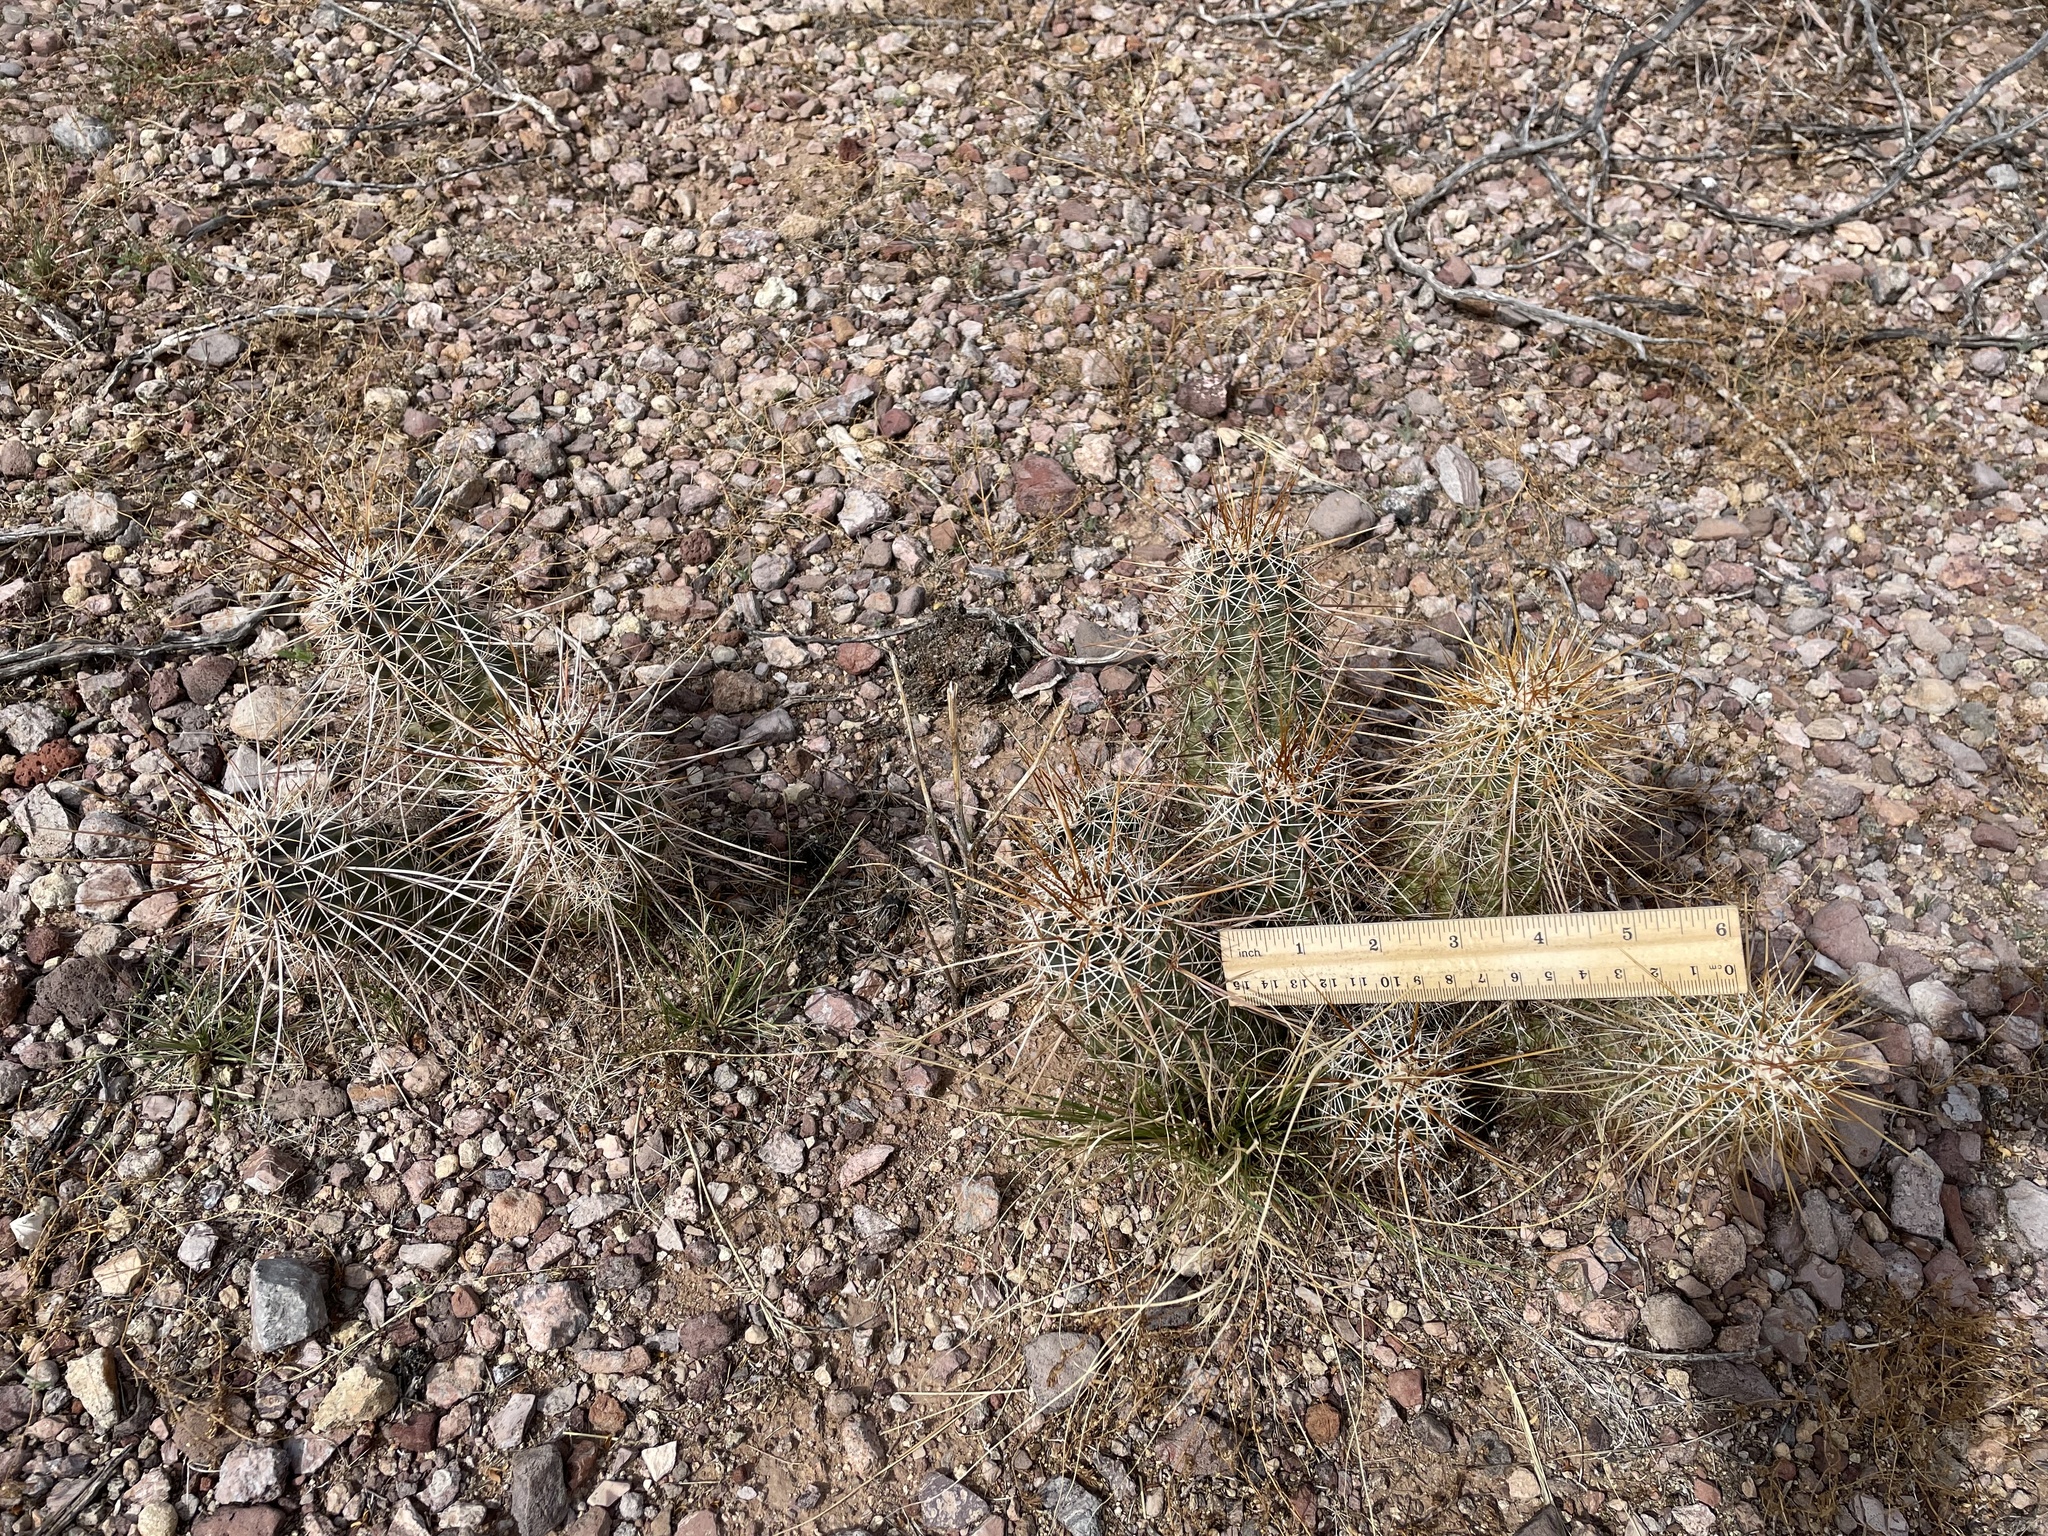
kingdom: Plantae
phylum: Tracheophyta
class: Magnoliopsida
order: Caryophyllales
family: Cactaceae
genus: Echinocereus
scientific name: Echinocereus engelmannii
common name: Engelmann's hedgehog cactus
